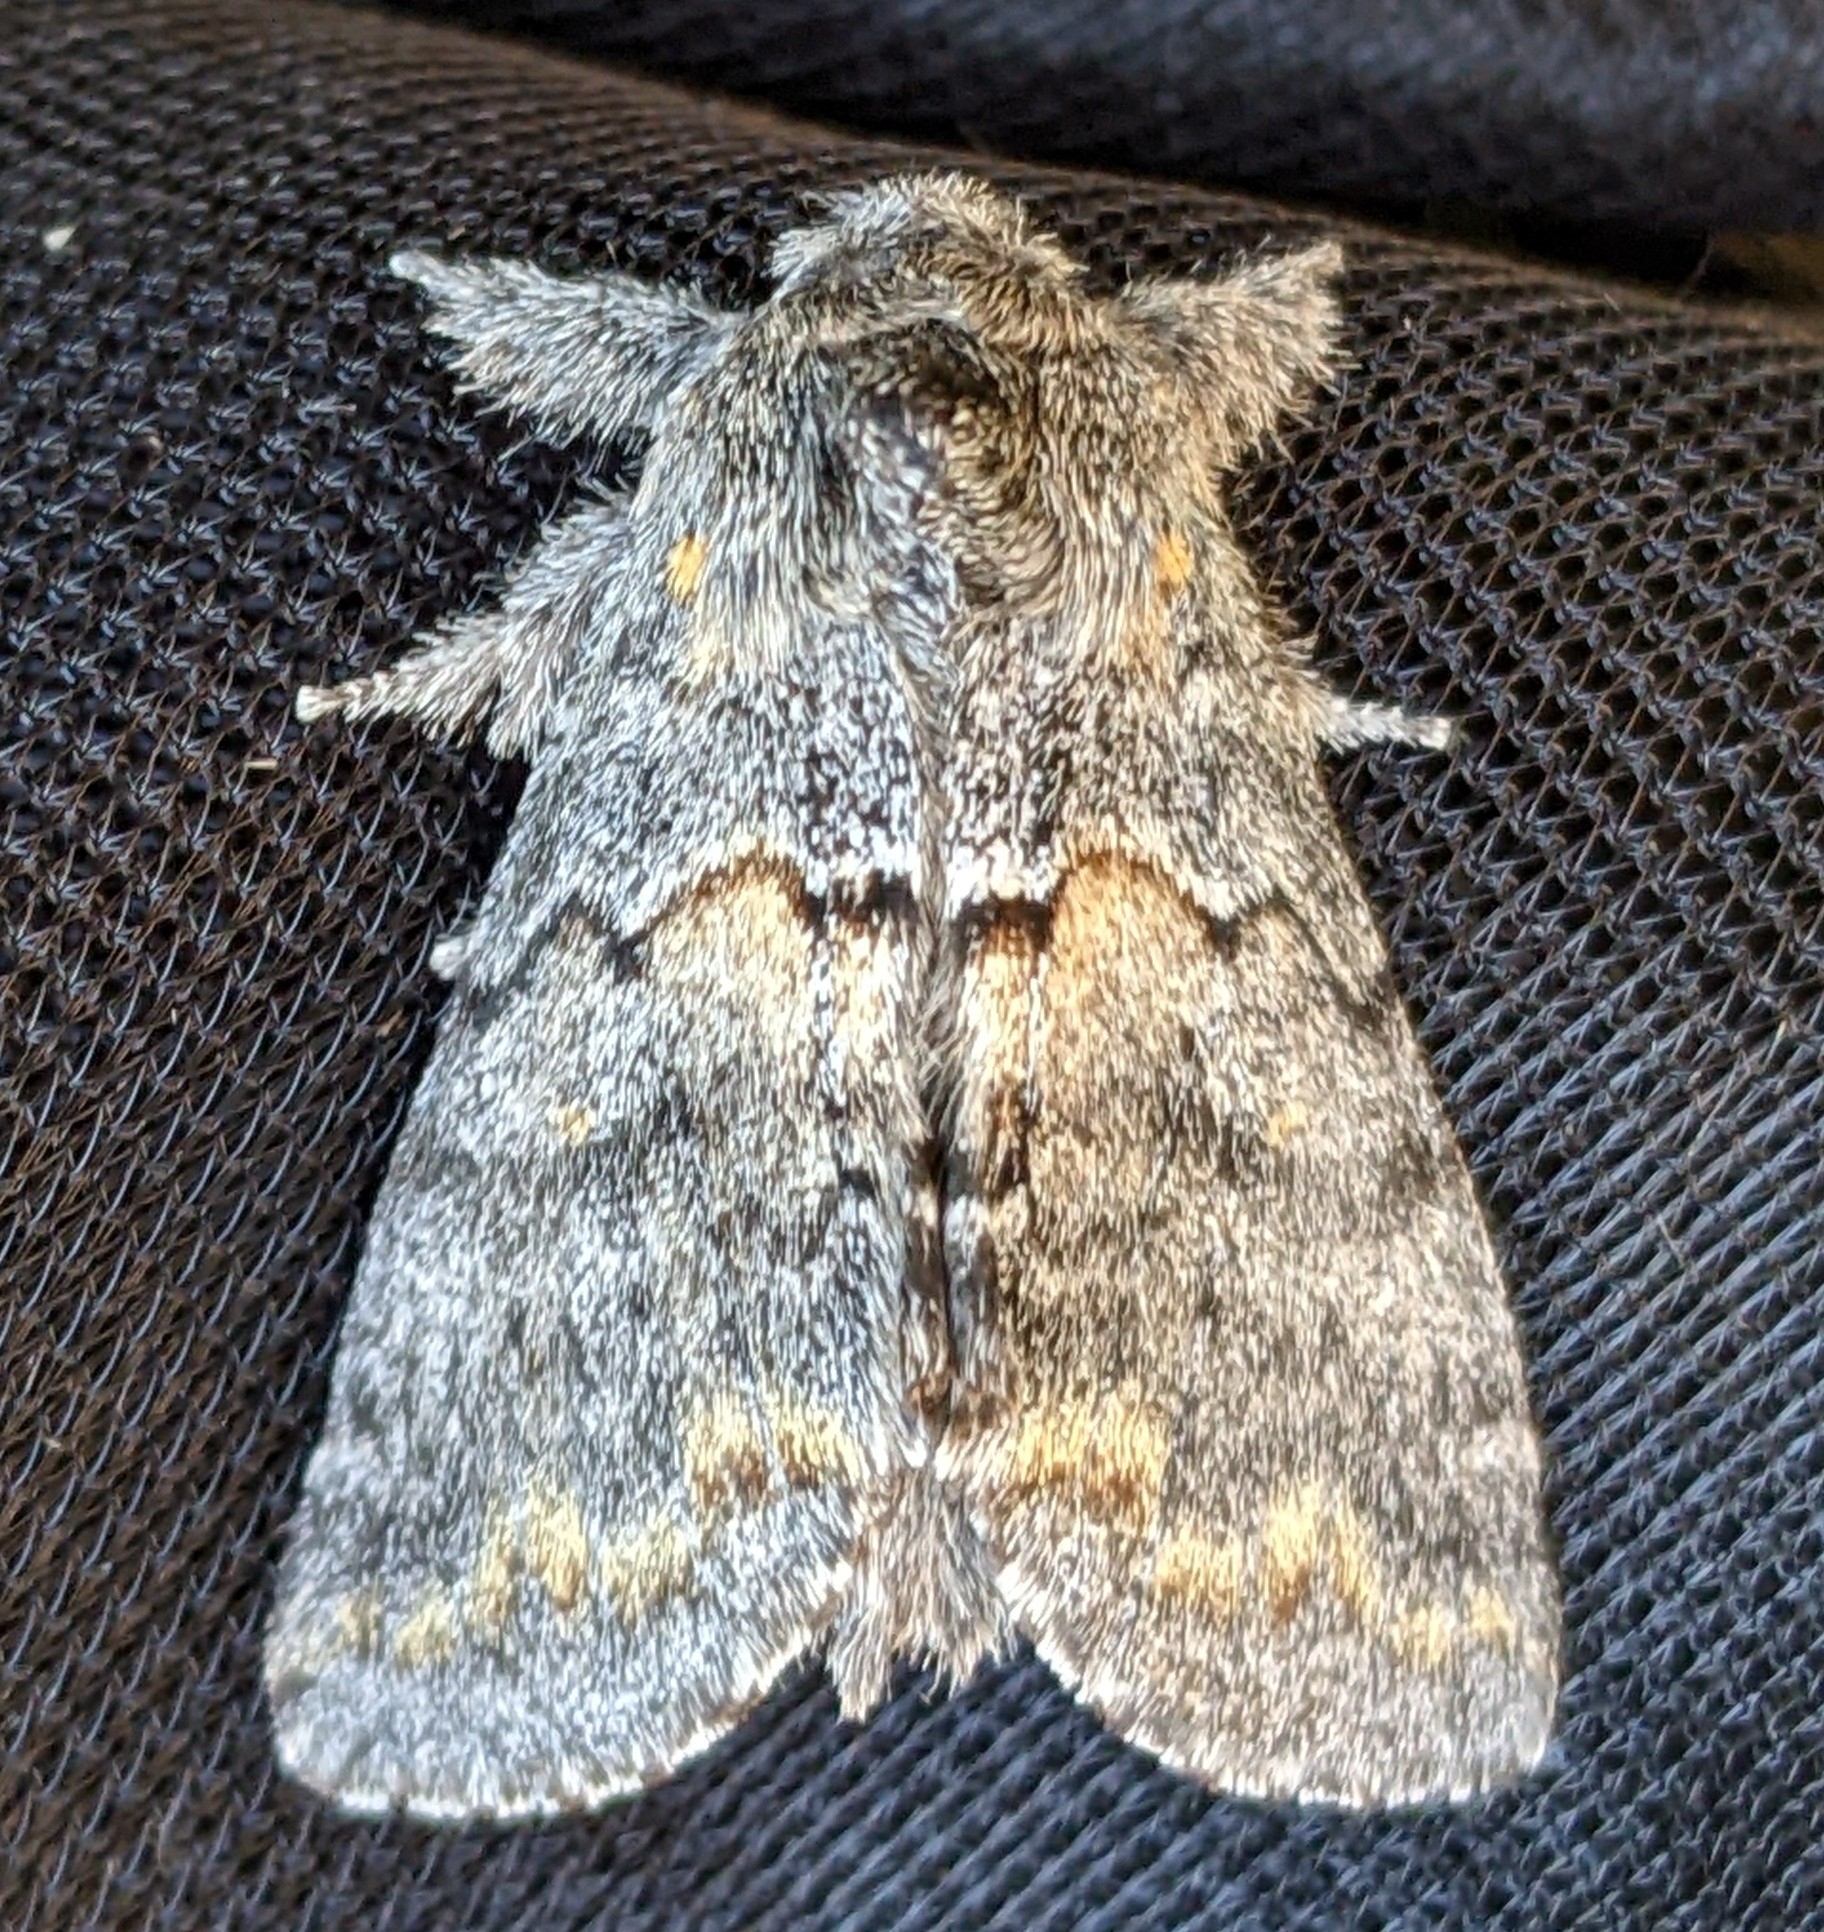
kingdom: Animalia
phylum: Arthropoda
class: Insecta
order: Lepidoptera
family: Notodontidae
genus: Gluphisia
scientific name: Gluphisia severa
